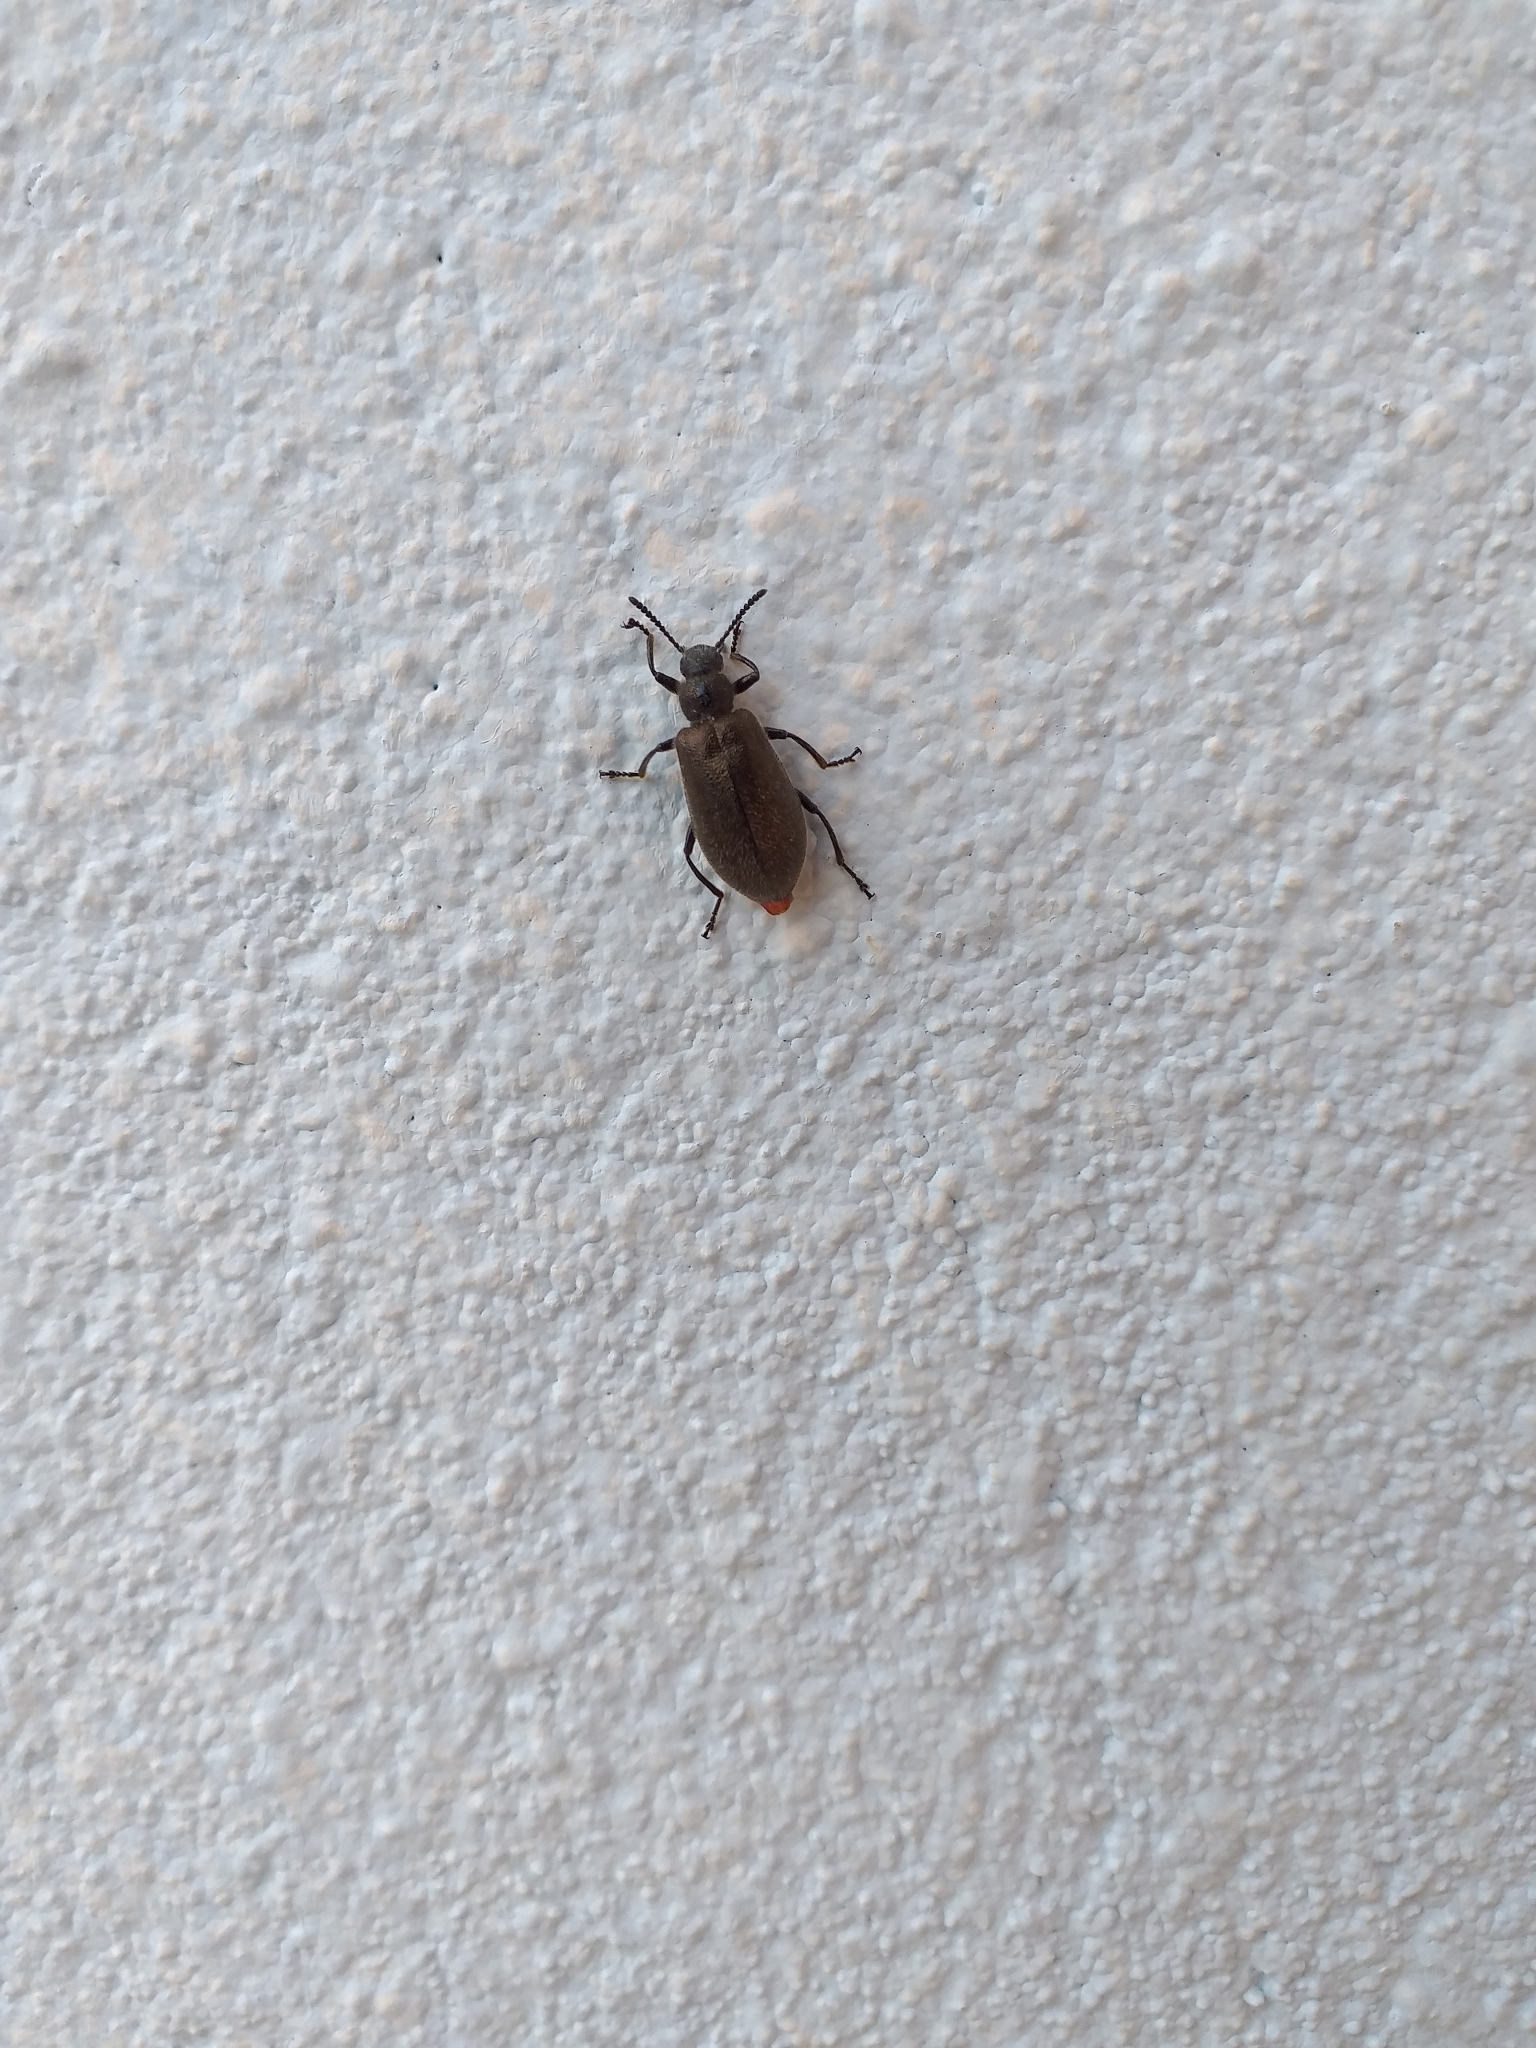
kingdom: Animalia
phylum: Arthropoda
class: Insecta
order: Coleoptera
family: Tenebrionidae
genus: Lagria
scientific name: Lagria villosa
